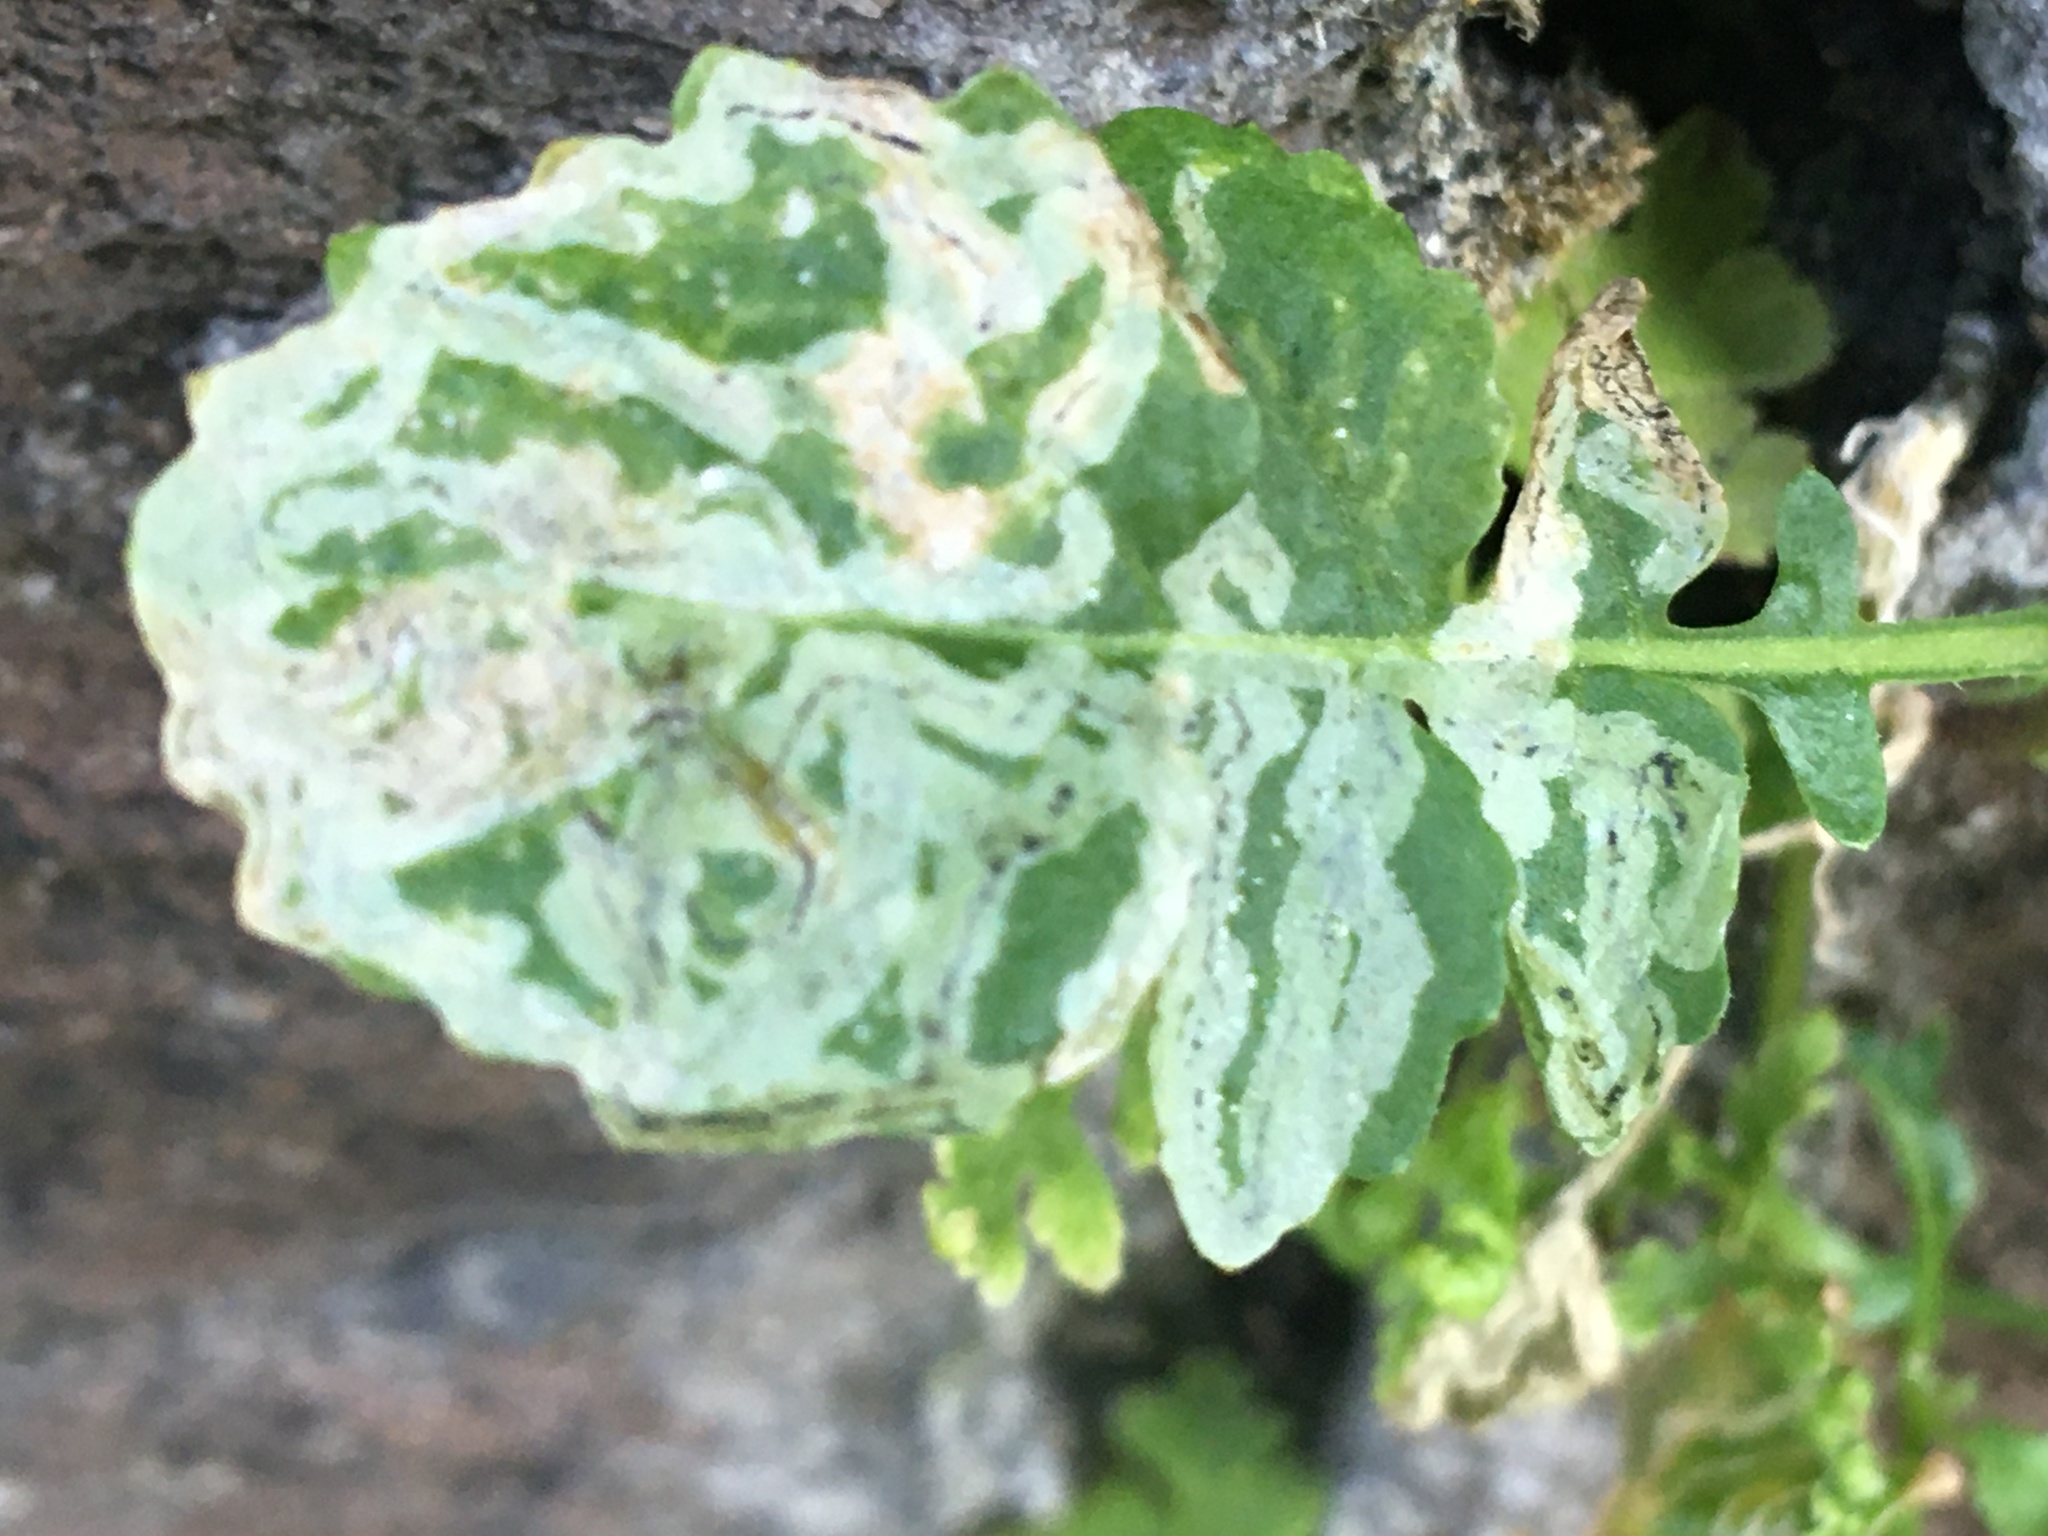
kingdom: Animalia
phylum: Arthropoda
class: Insecta
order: Diptera
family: Agromyzidae
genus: Liriomyza
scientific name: Liriomyza brassicae
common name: Serpentine leaf miner
